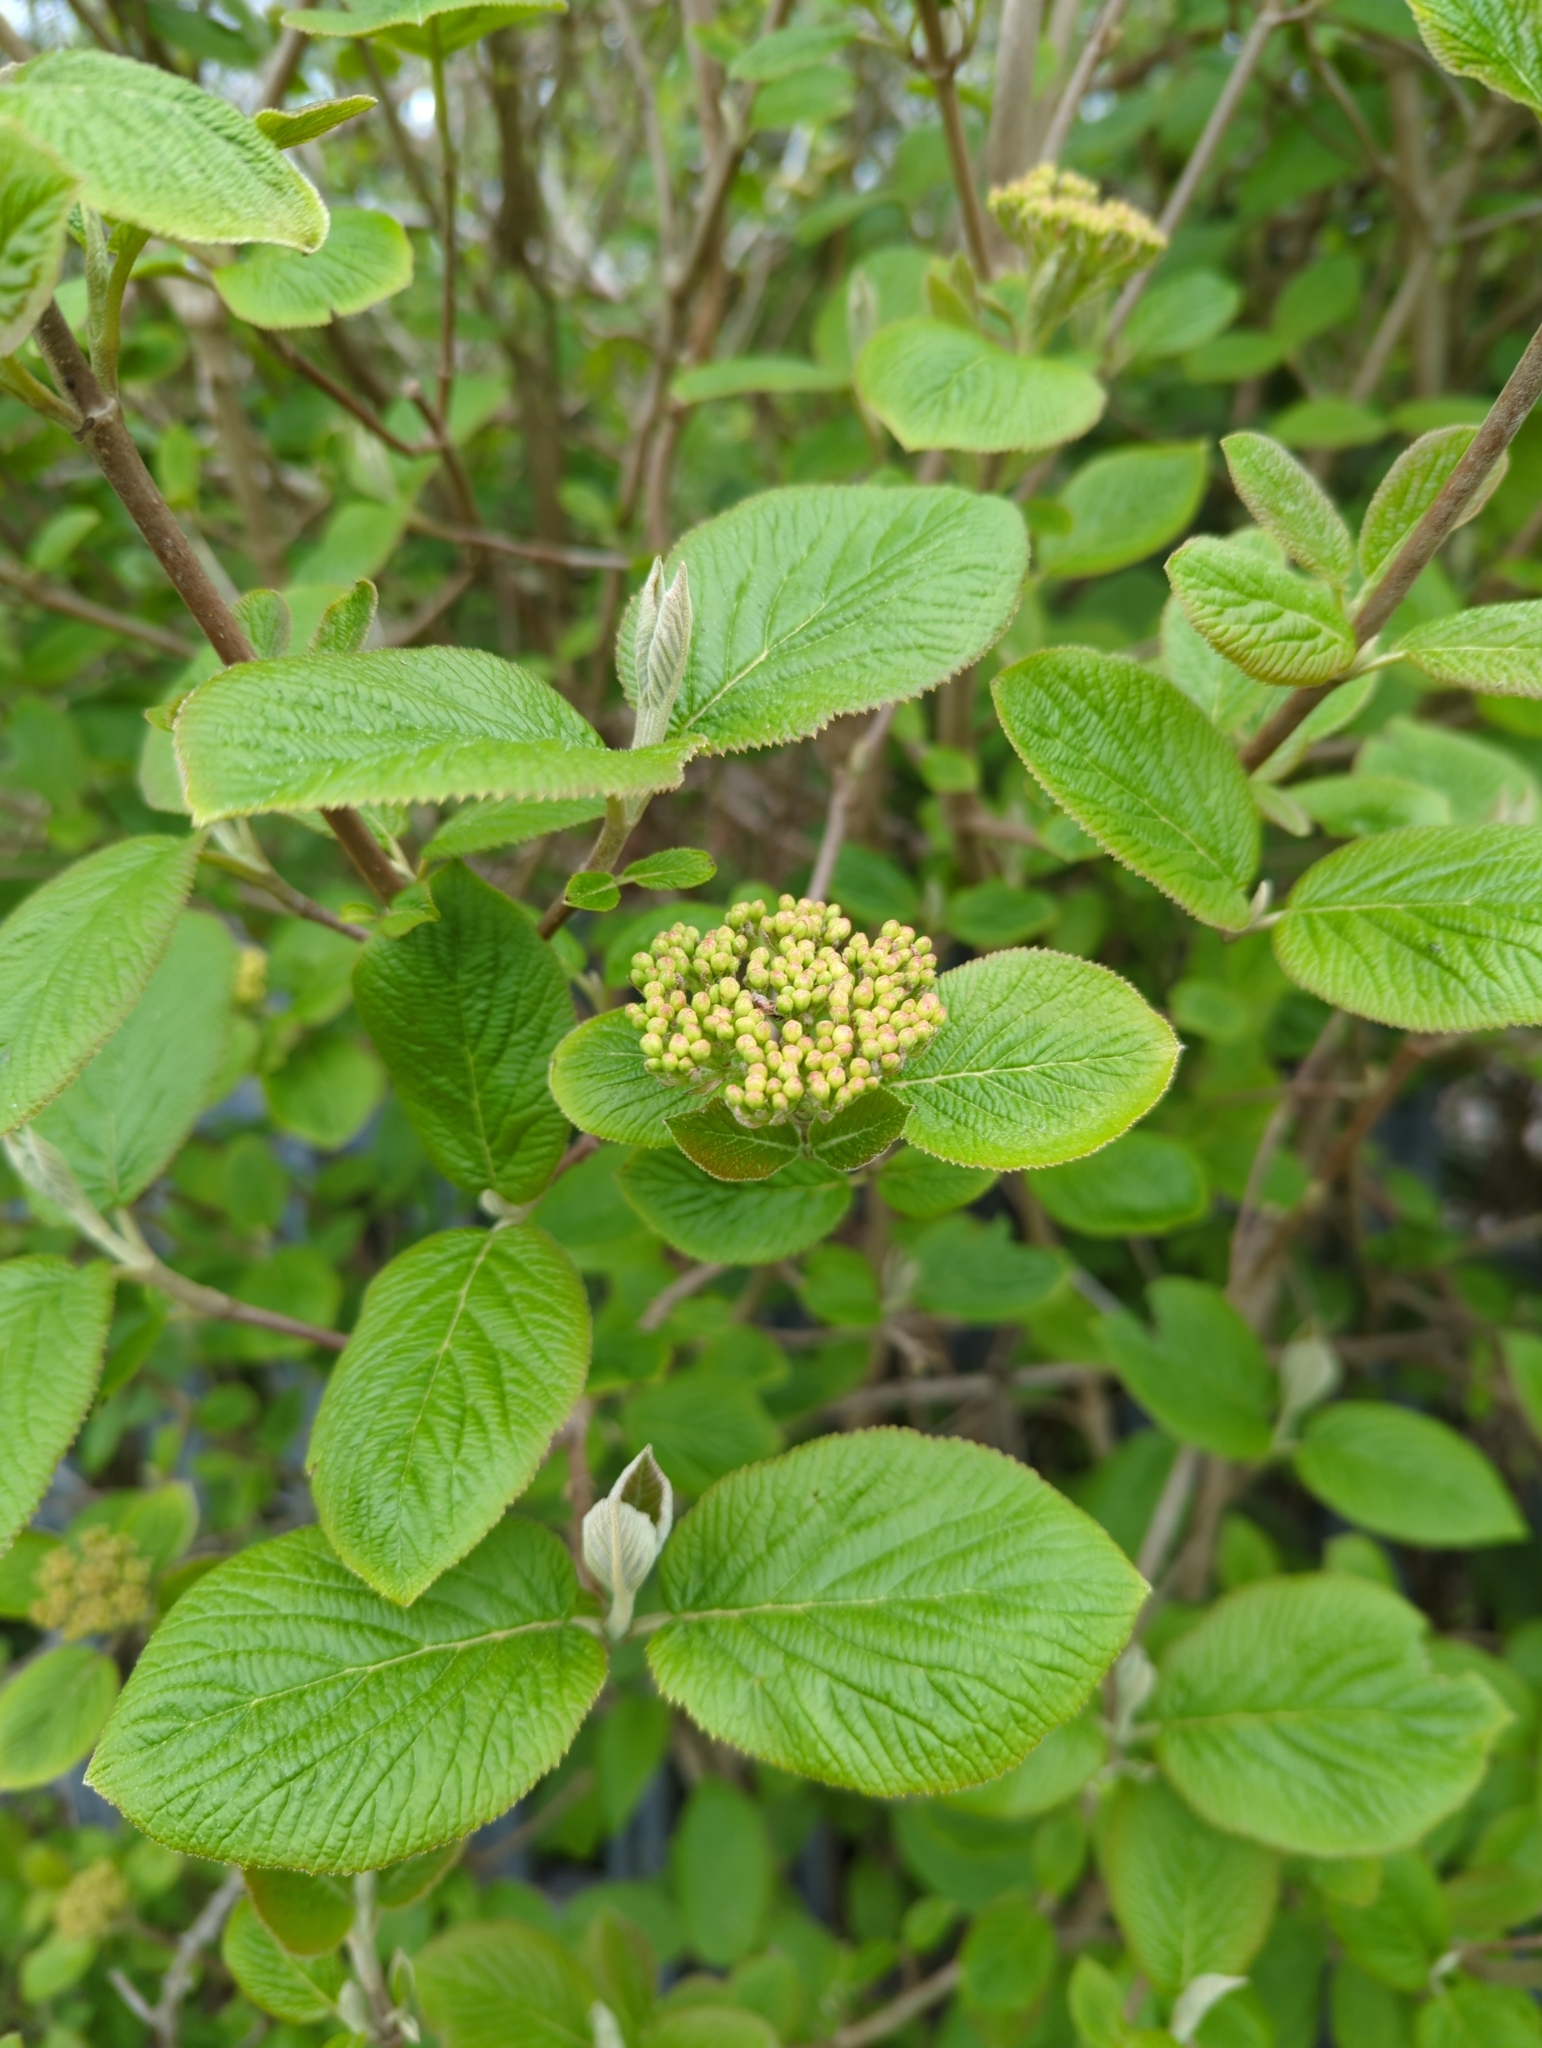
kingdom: Plantae
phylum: Tracheophyta
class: Magnoliopsida
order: Dipsacales
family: Viburnaceae
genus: Viburnum
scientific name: Viburnum lantana
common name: Wayfaring tree
